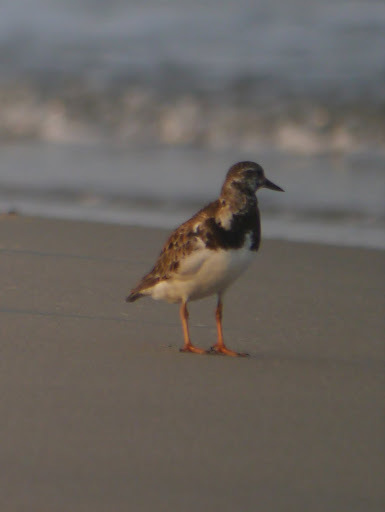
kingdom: Animalia
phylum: Chordata
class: Aves
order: Charadriiformes
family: Scolopacidae
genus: Arenaria
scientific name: Arenaria interpres
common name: Ruddy turnstone
